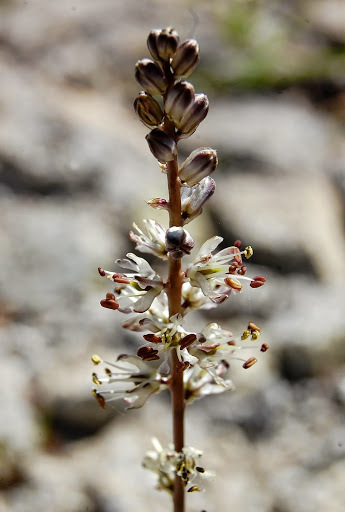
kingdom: Plantae
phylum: Tracheophyta
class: Liliopsida
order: Asparagales
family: Asparagaceae
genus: Hastingsia
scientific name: Hastingsia alba
